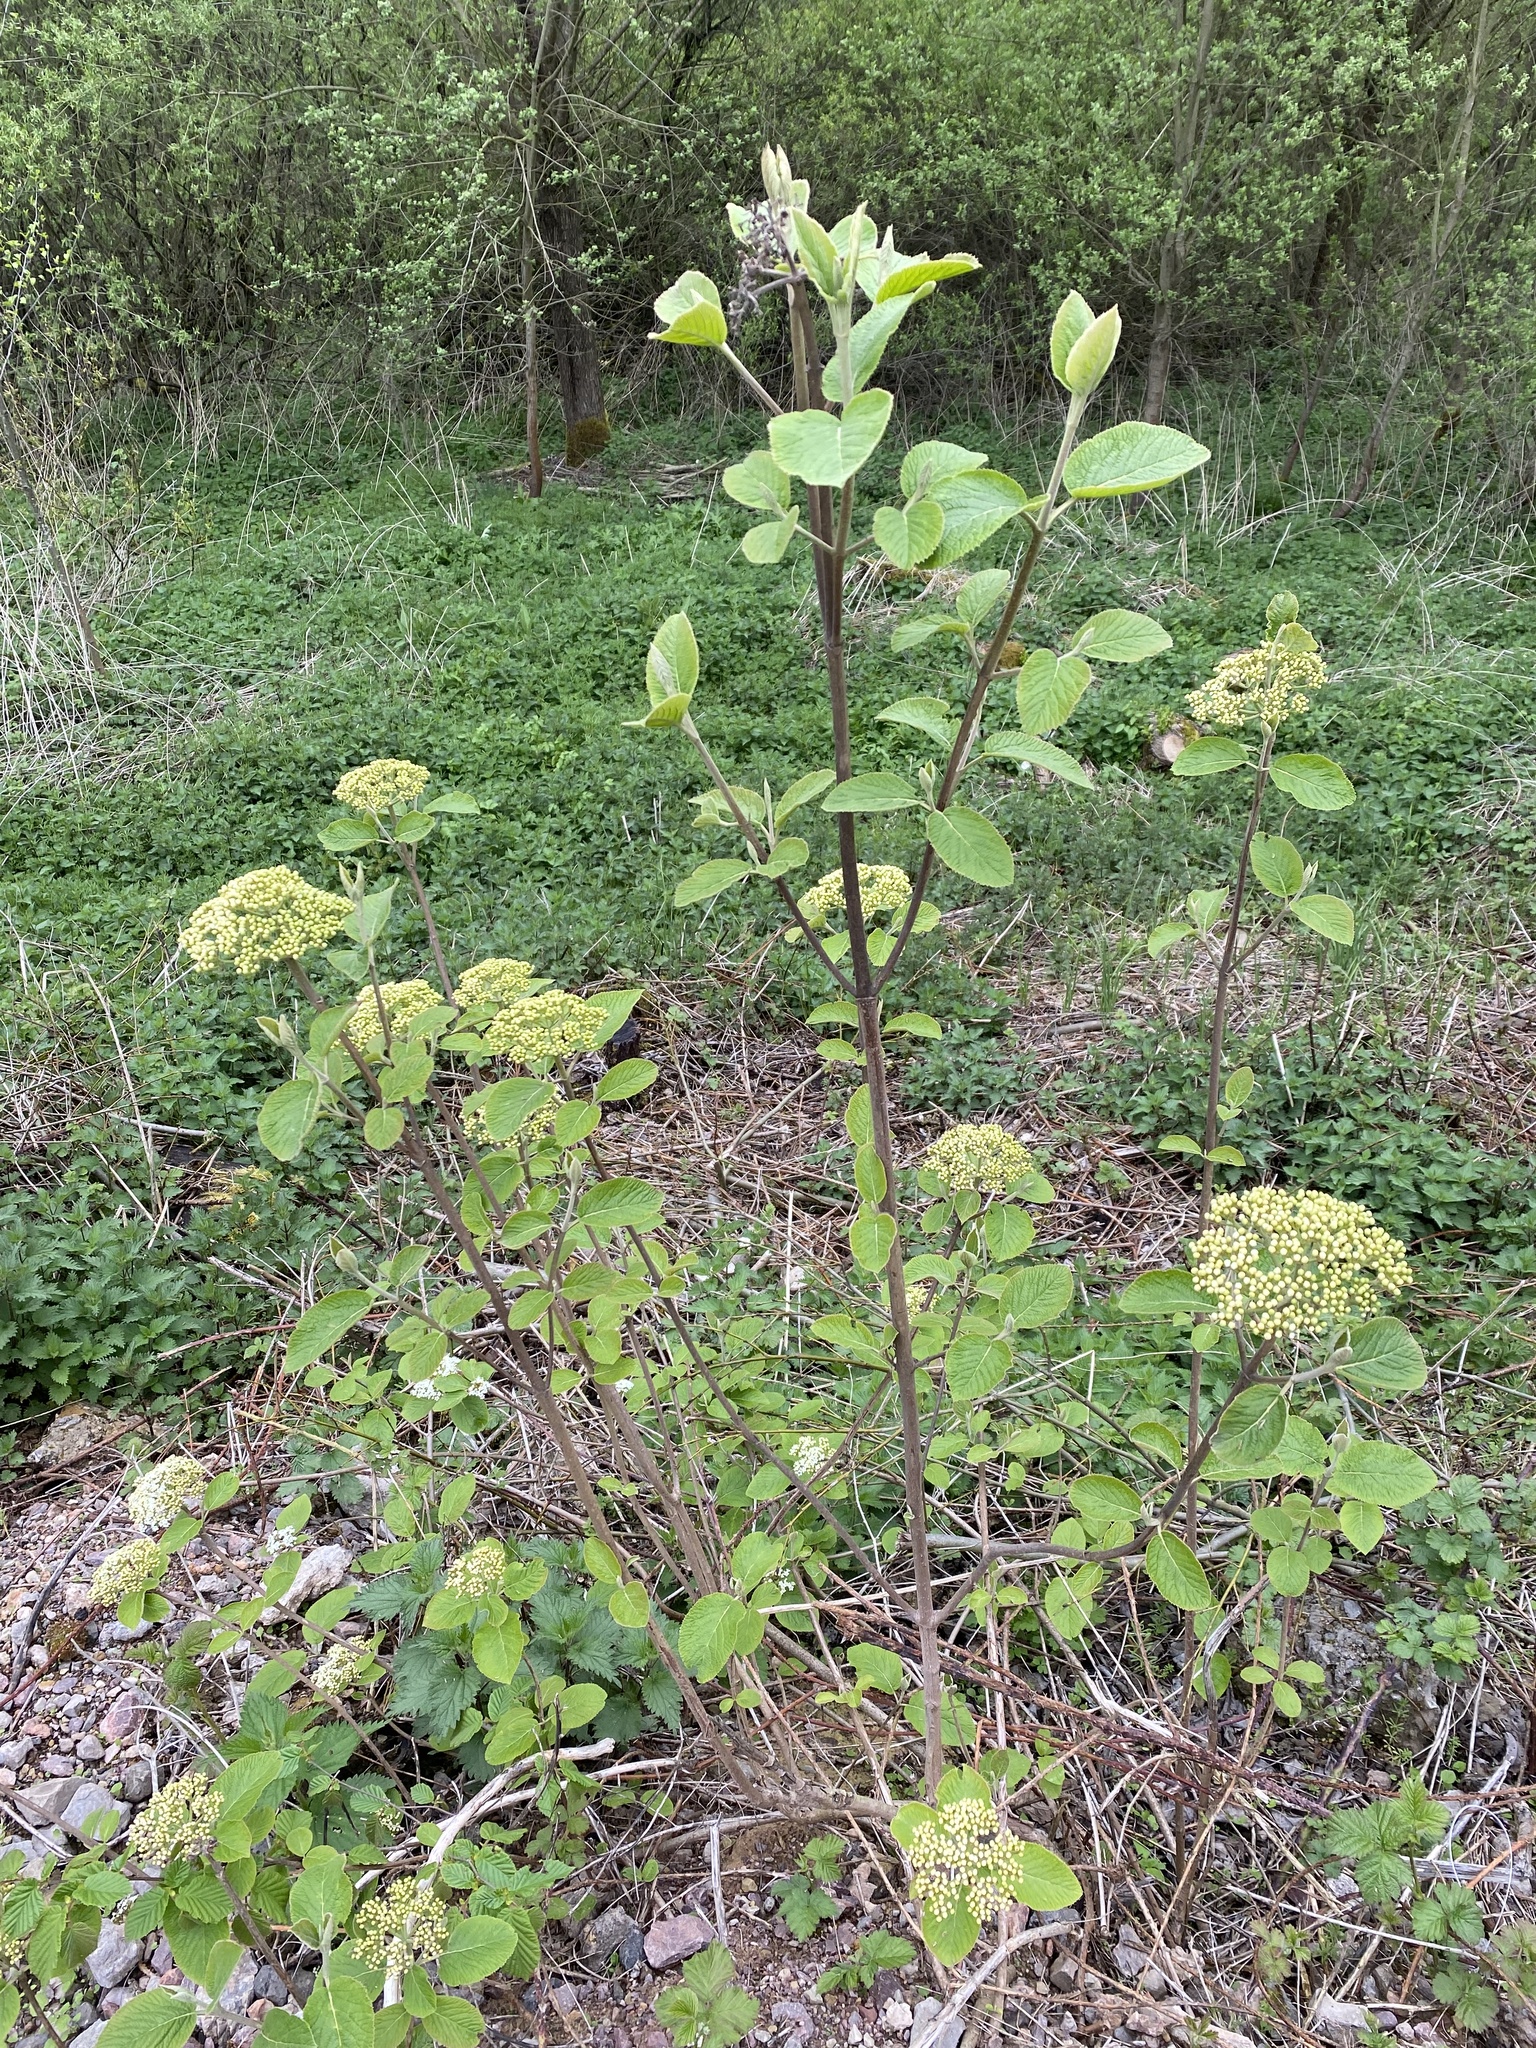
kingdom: Plantae
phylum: Tracheophyta
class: Magnoliopsida
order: Dipsacales
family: Viburnaceae
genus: Viburnum
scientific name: Viburnum lantana
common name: Wayfaring tree
